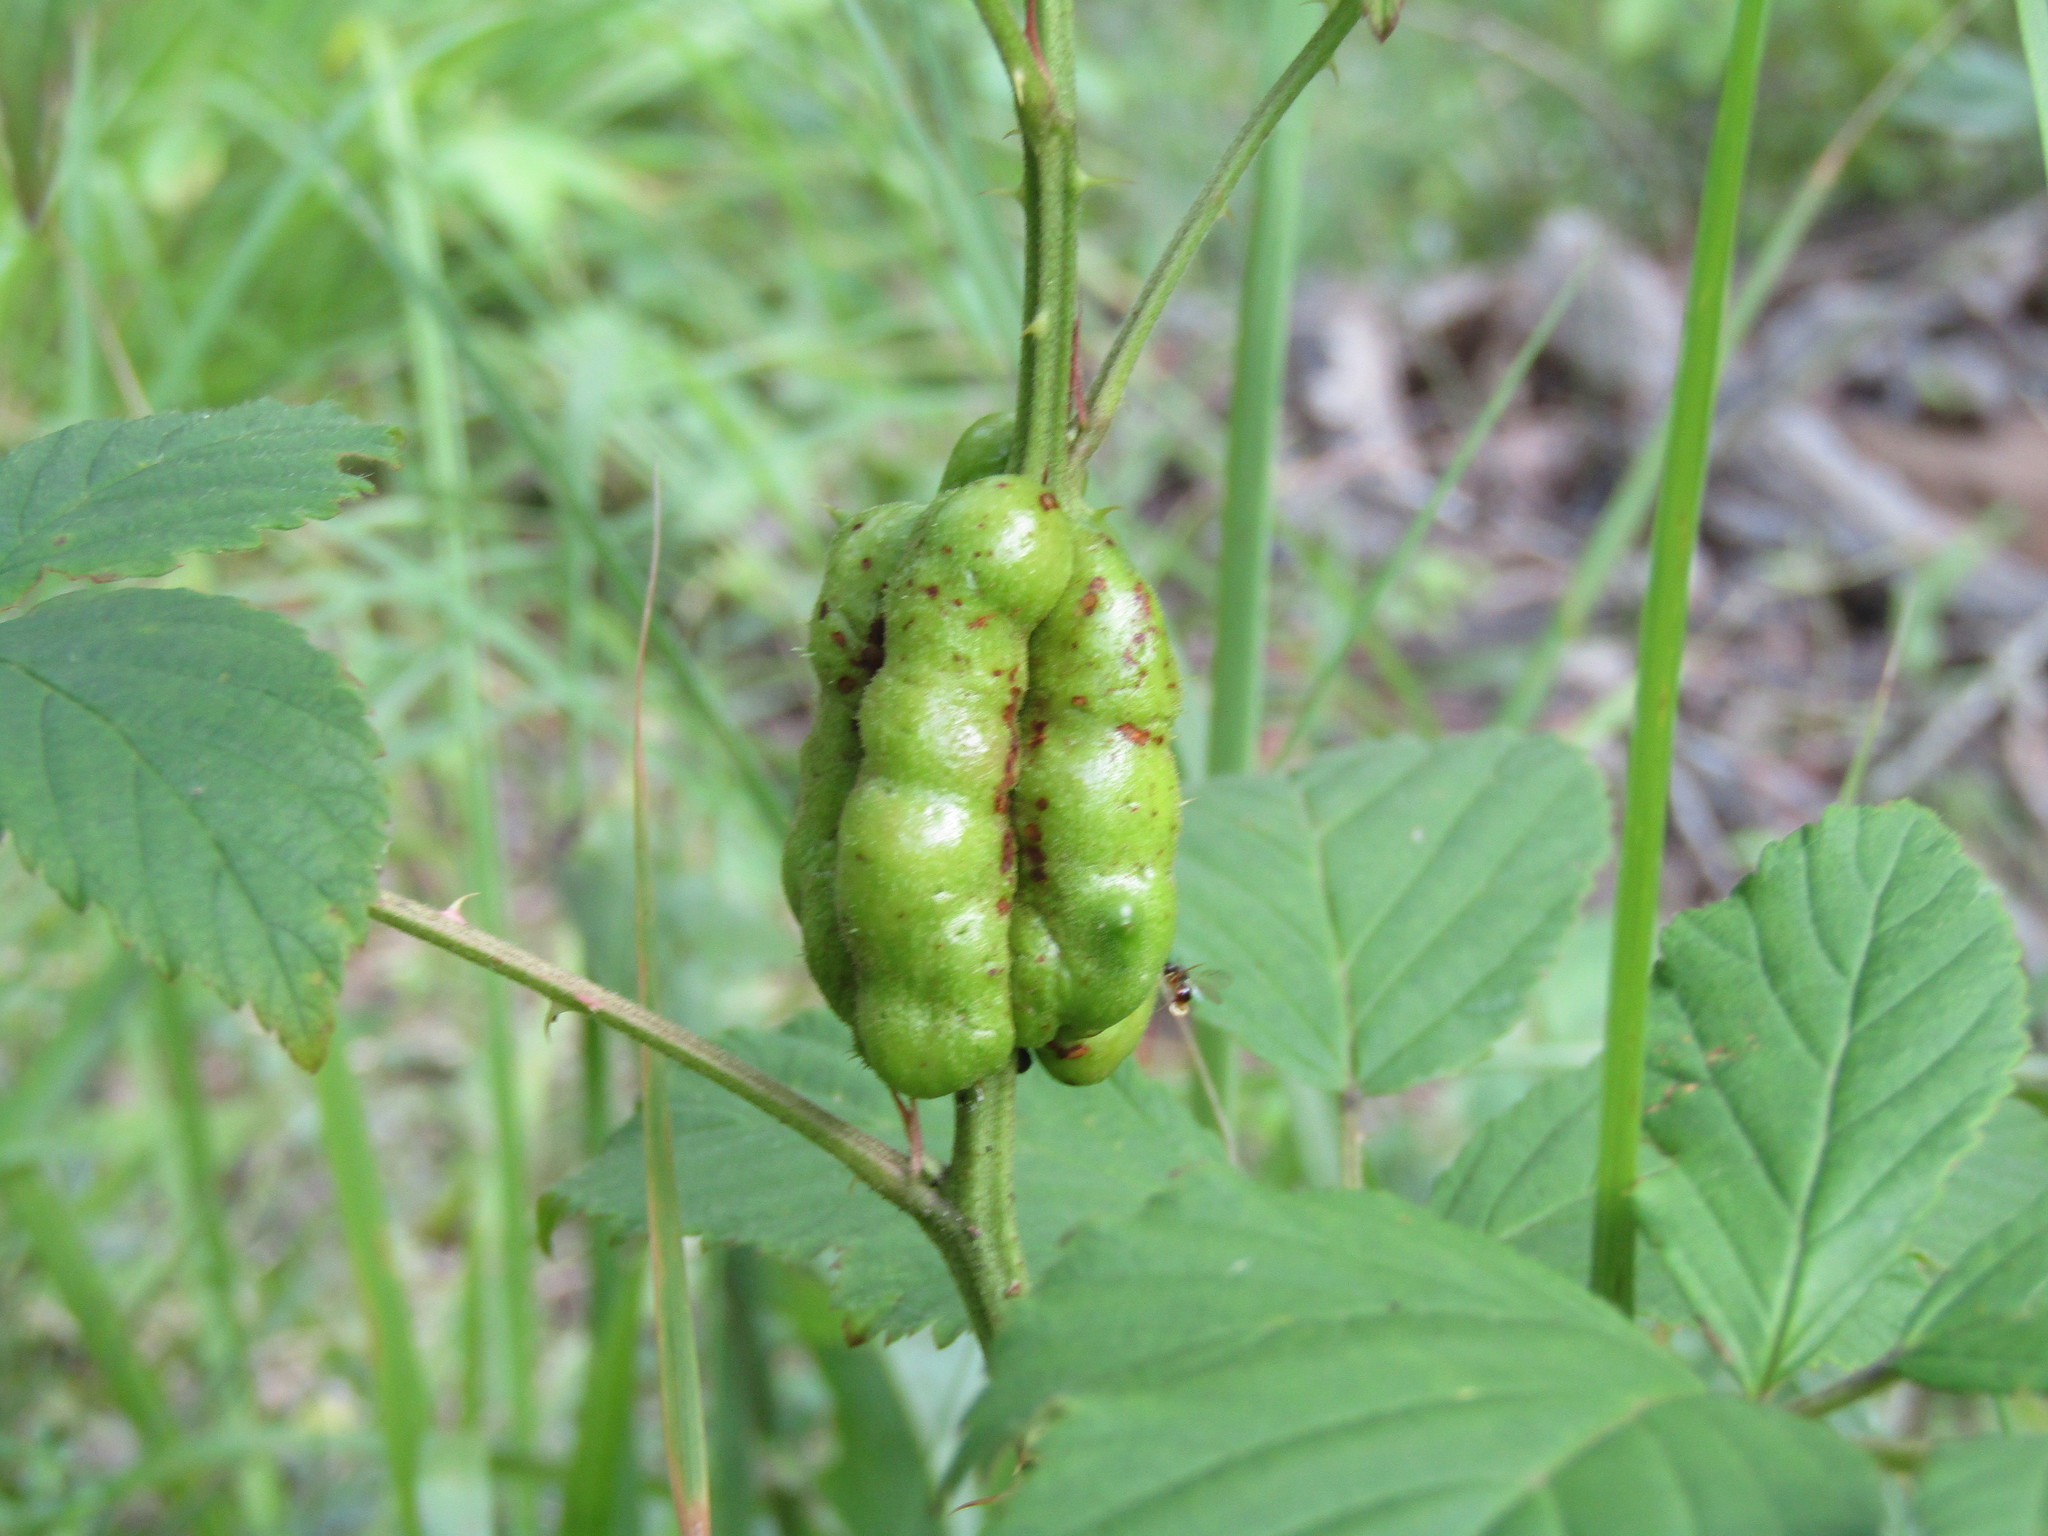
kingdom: Animalia
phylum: Arthropoda
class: Insecta
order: Hymenoptera
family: Cynipidae
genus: Diastrophus
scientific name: Diastrophus
